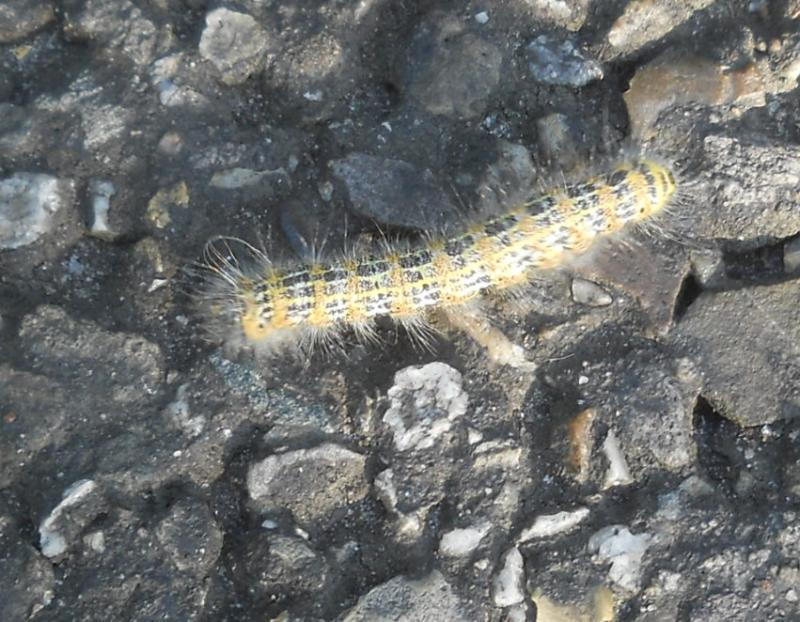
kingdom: Animalia
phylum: Arthropoda
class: Insecta
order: Lepidoptera
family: Notodontidae
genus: Phalera
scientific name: Phalera bucephala
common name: Buff-tip
